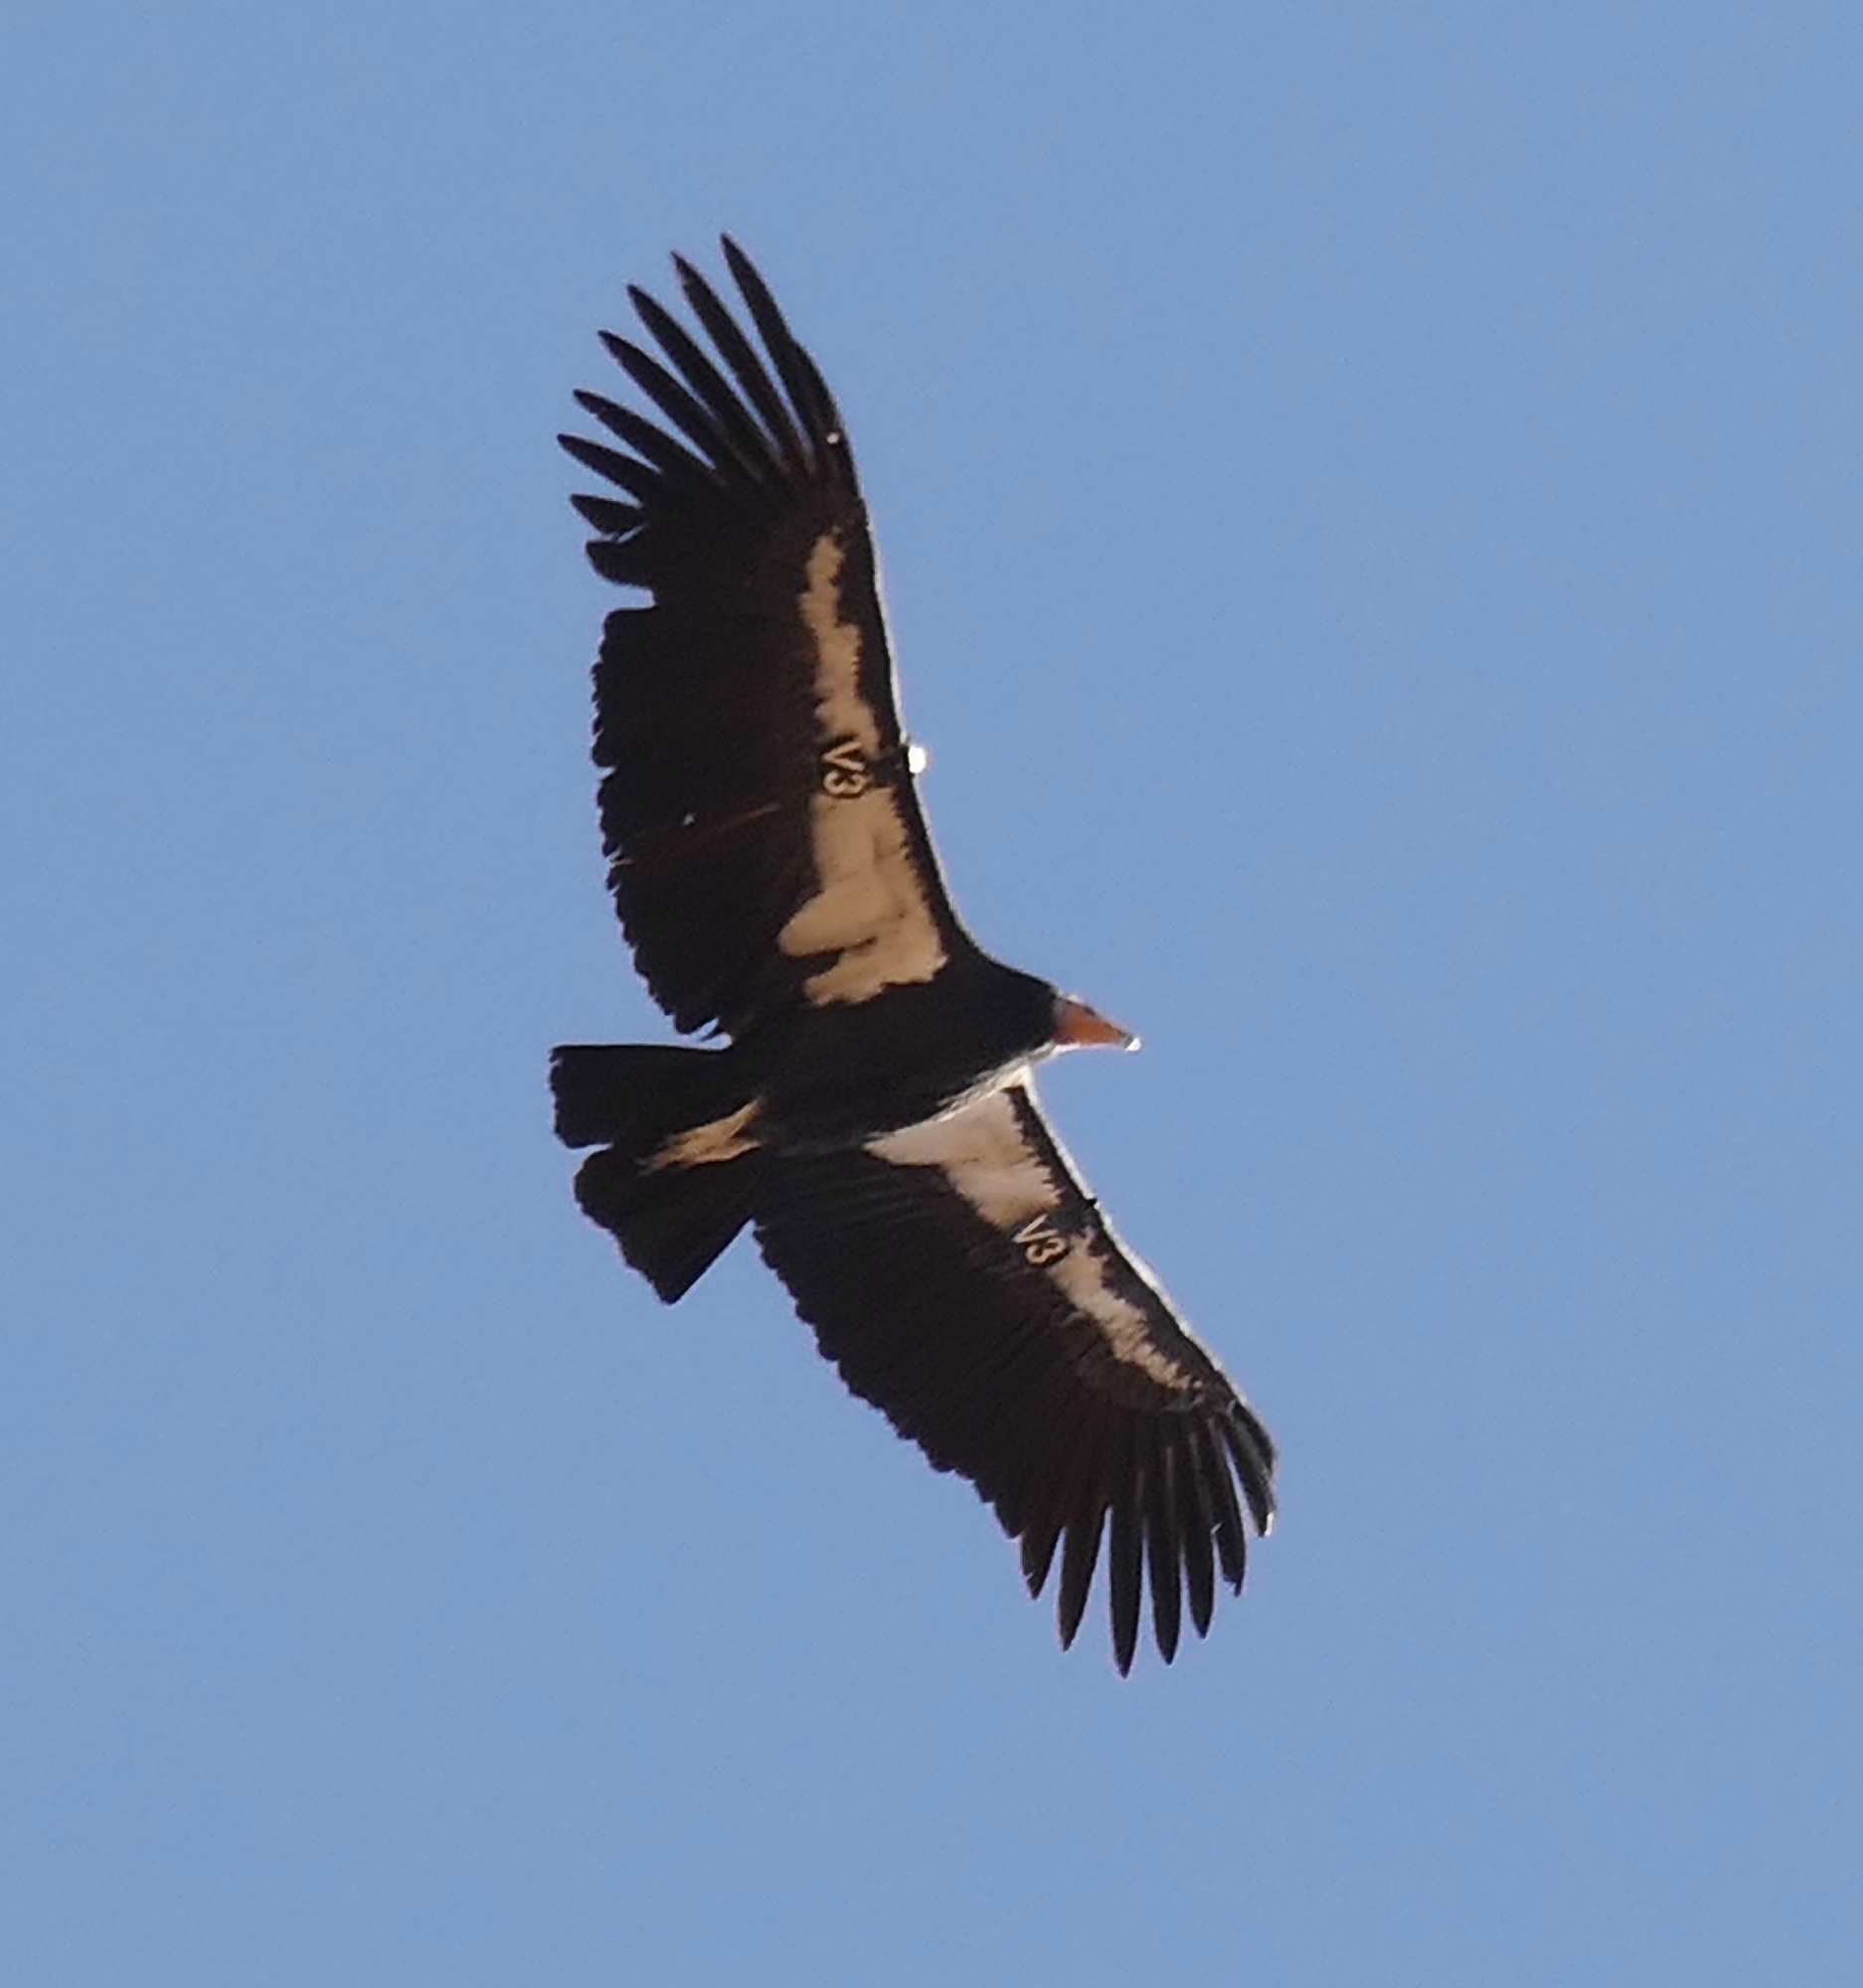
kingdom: Animalia
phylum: Chordata
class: Aves
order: Accipitriformes
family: Cathartidae
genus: Gymnogyps
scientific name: Gymnogyps californianus
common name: California condor
